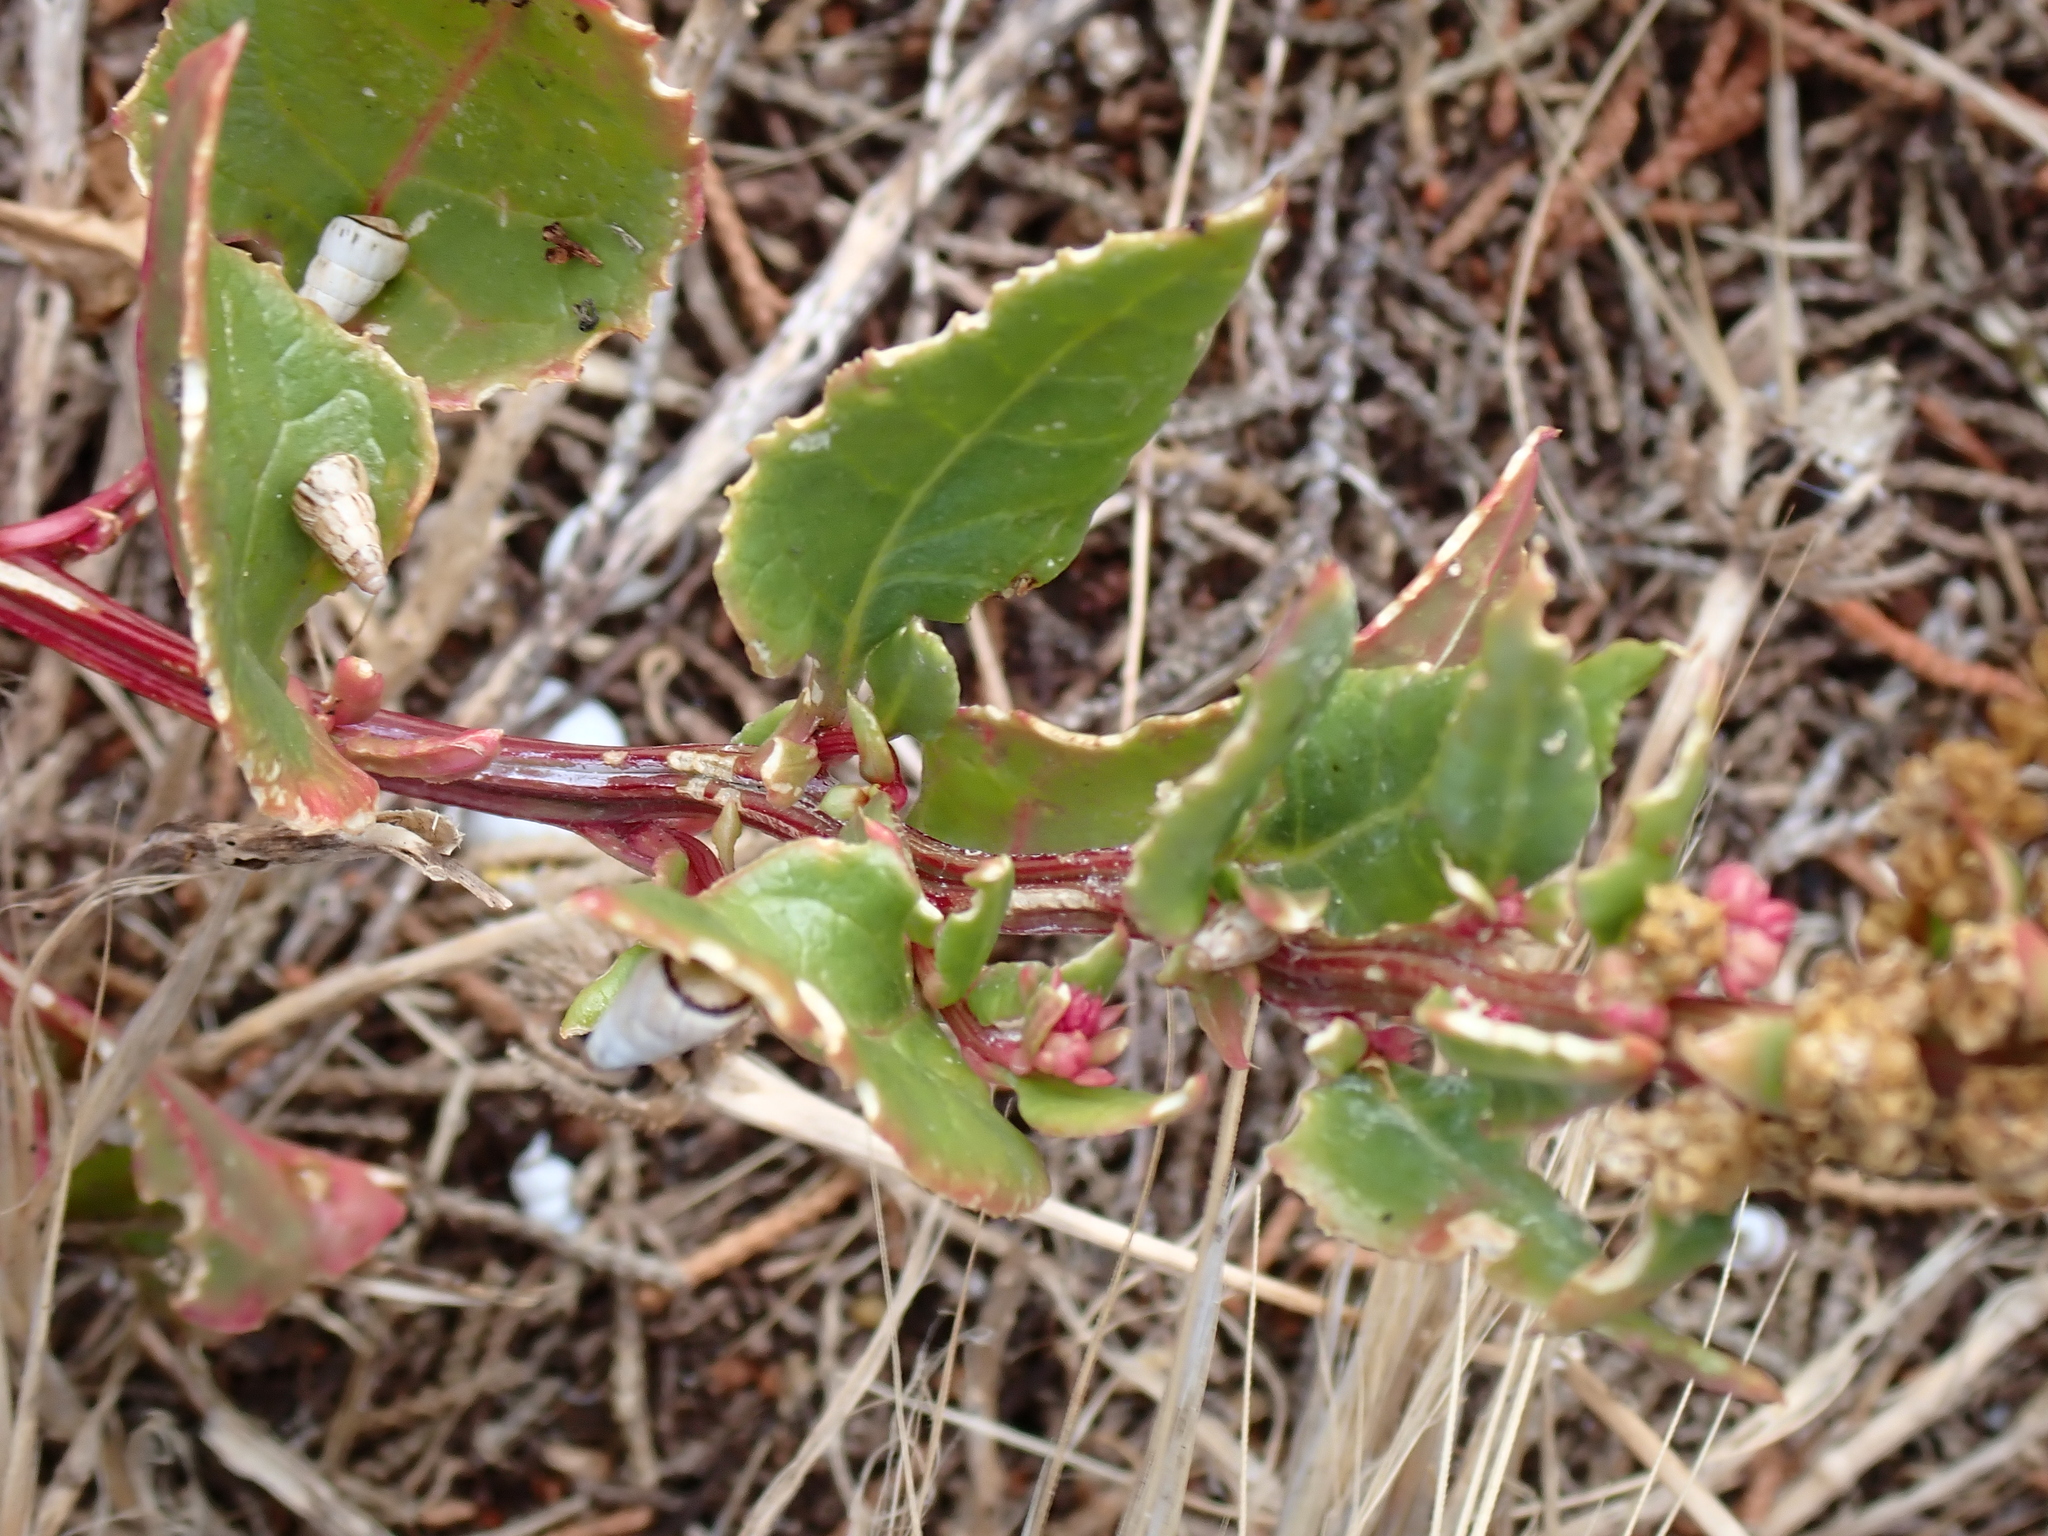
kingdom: Plantae
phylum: Tracheophyta
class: Magnoliopsida
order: Caryophyllales
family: Amaranthaceae
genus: Beta
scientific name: Beta vulgaris
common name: Beet
